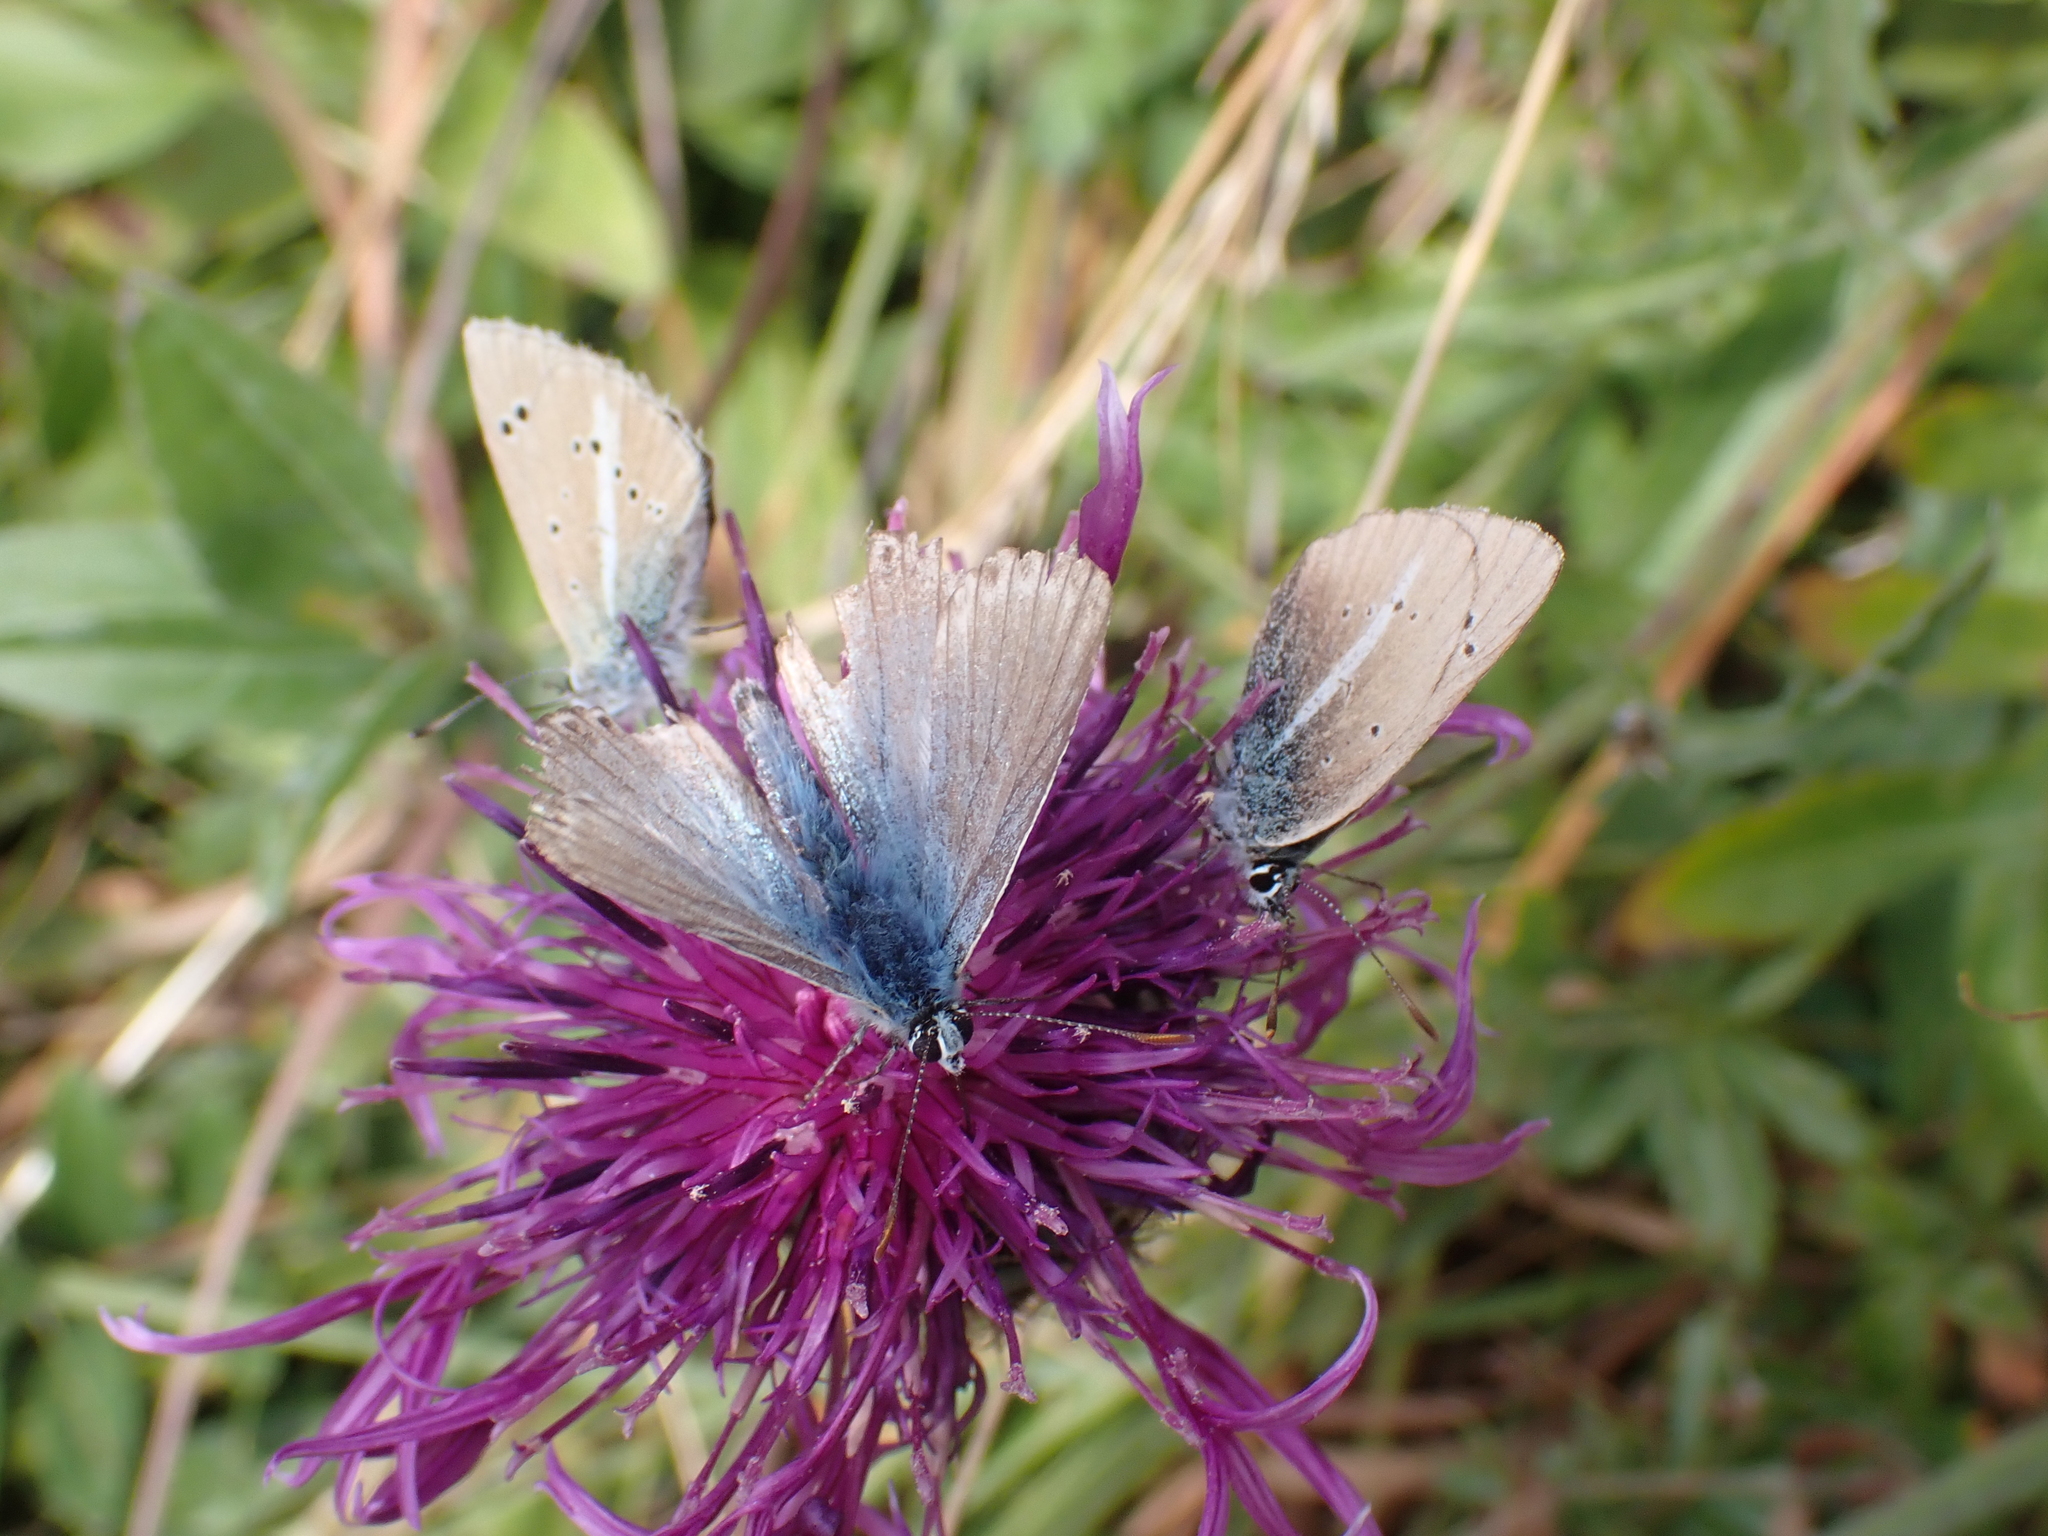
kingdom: Animalia
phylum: Arthropoda
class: Insecta
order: Lepidoptera
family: Lycaenidae
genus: Agrodiaetus
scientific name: Agrodiaetus damon
